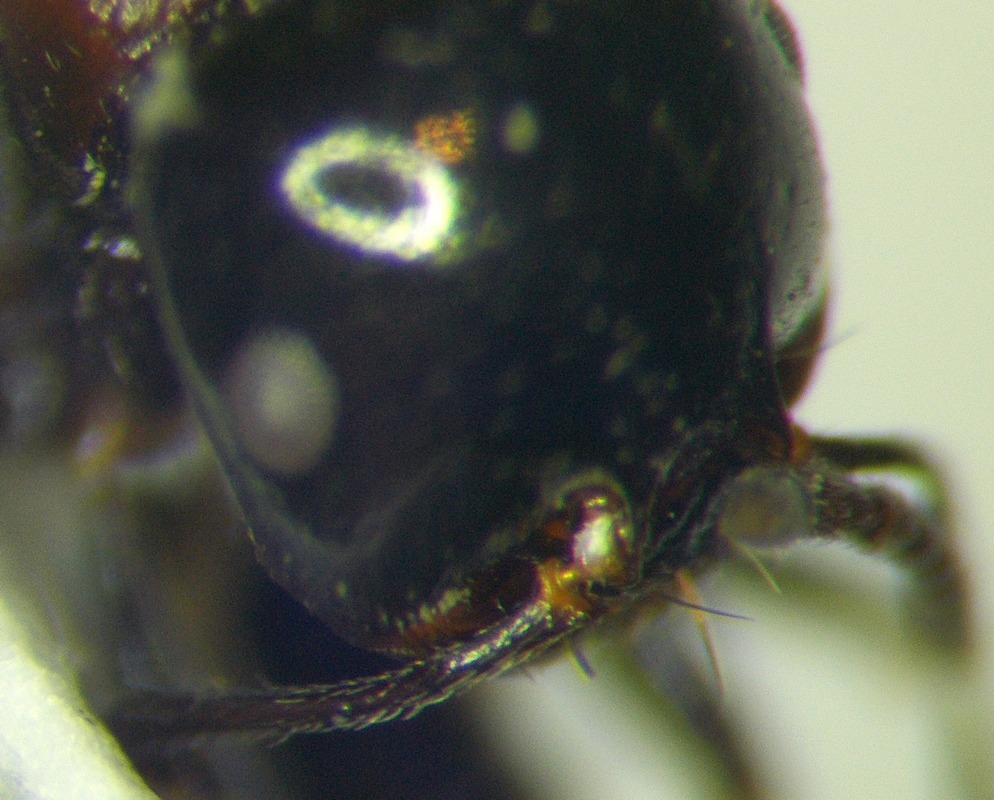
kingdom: Animalia
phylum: Arthropoda
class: Insecta
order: Hymenoptera
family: Formicidae
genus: Messor
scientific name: Messor syriacus
